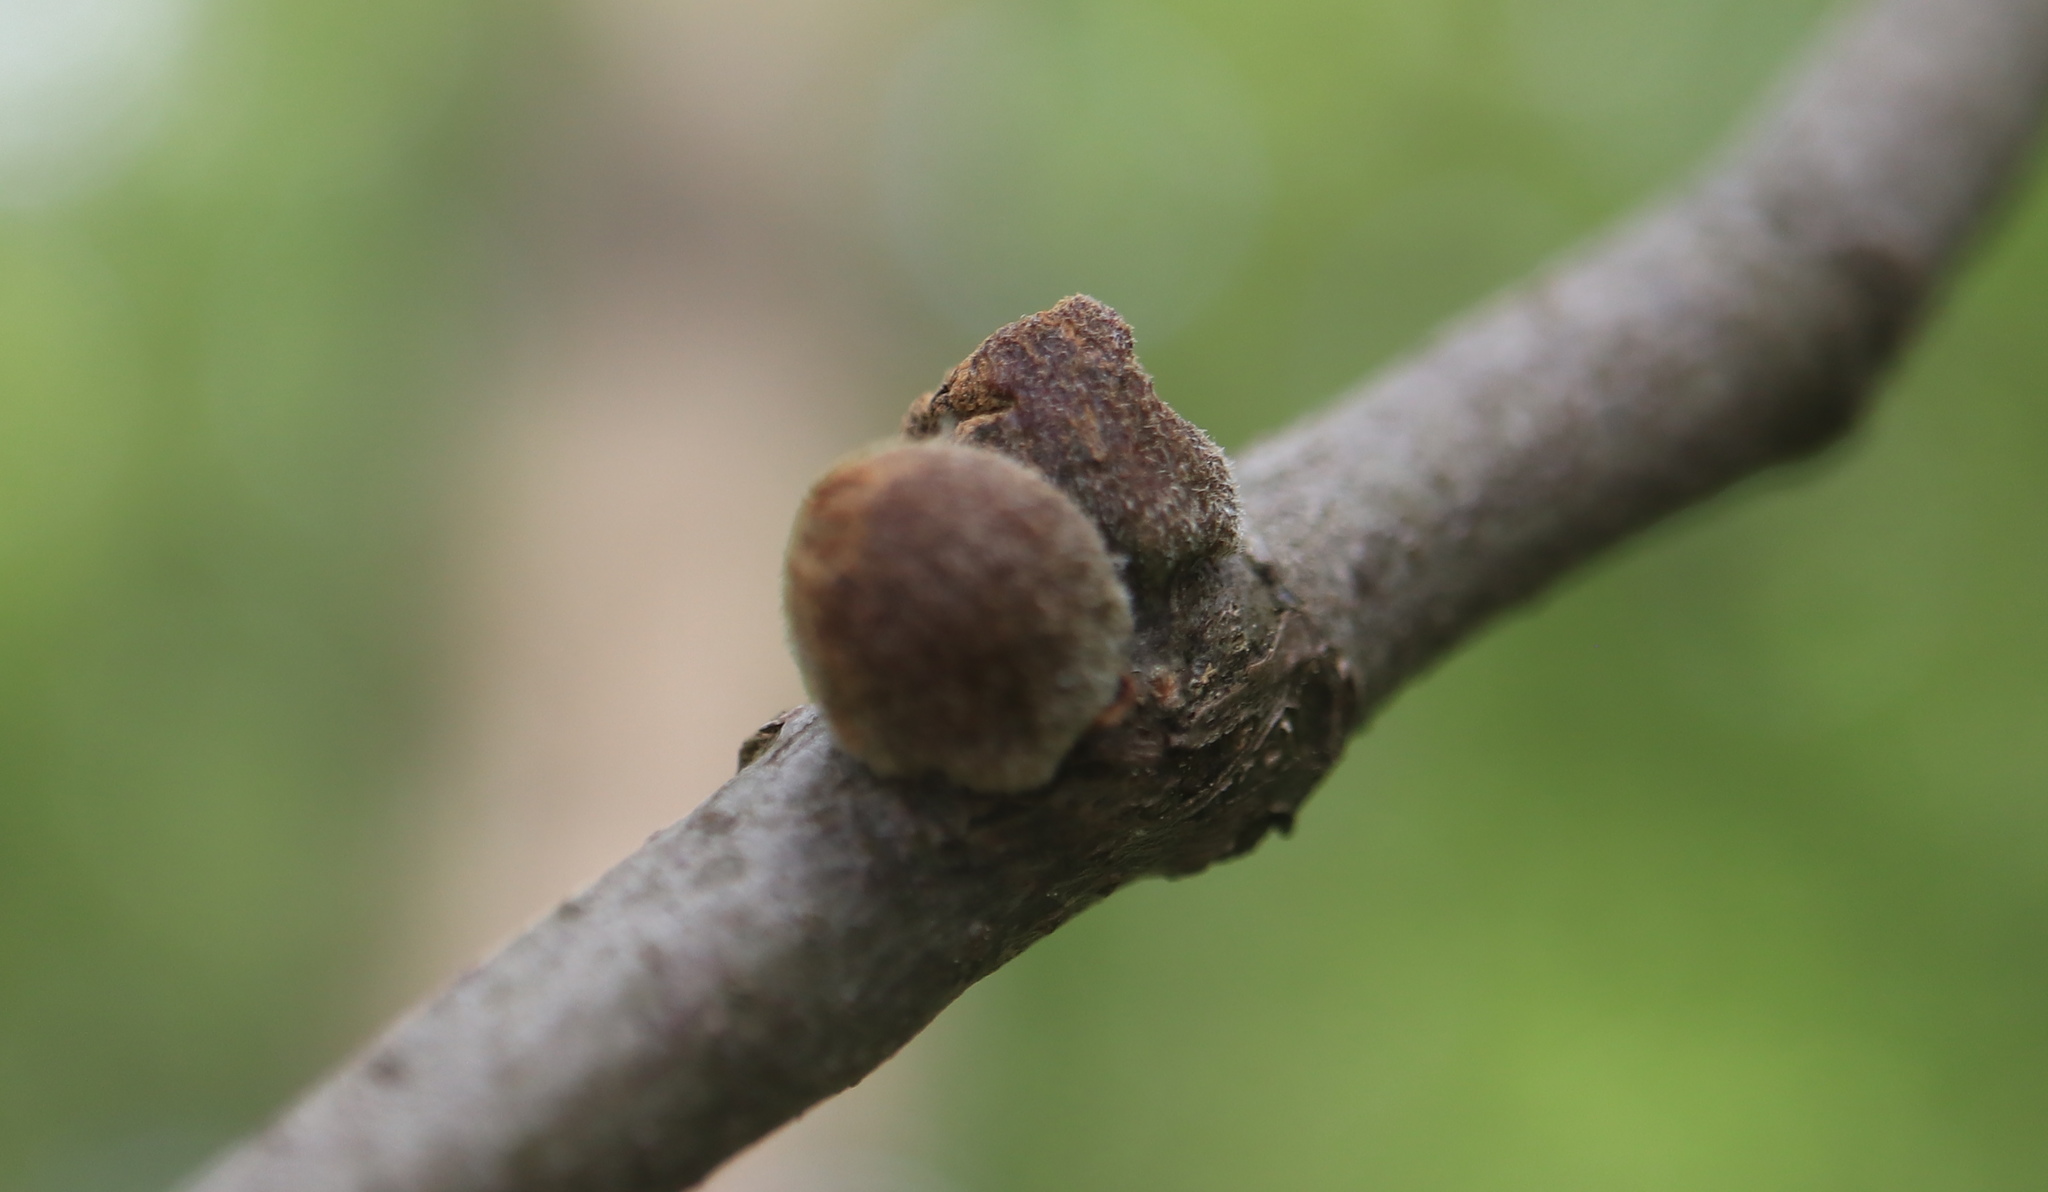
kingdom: Animalia
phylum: Arthropoda
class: Insecta
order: Hymenoptera
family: Cynipidae
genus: Callirhytis
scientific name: Callirhytis
